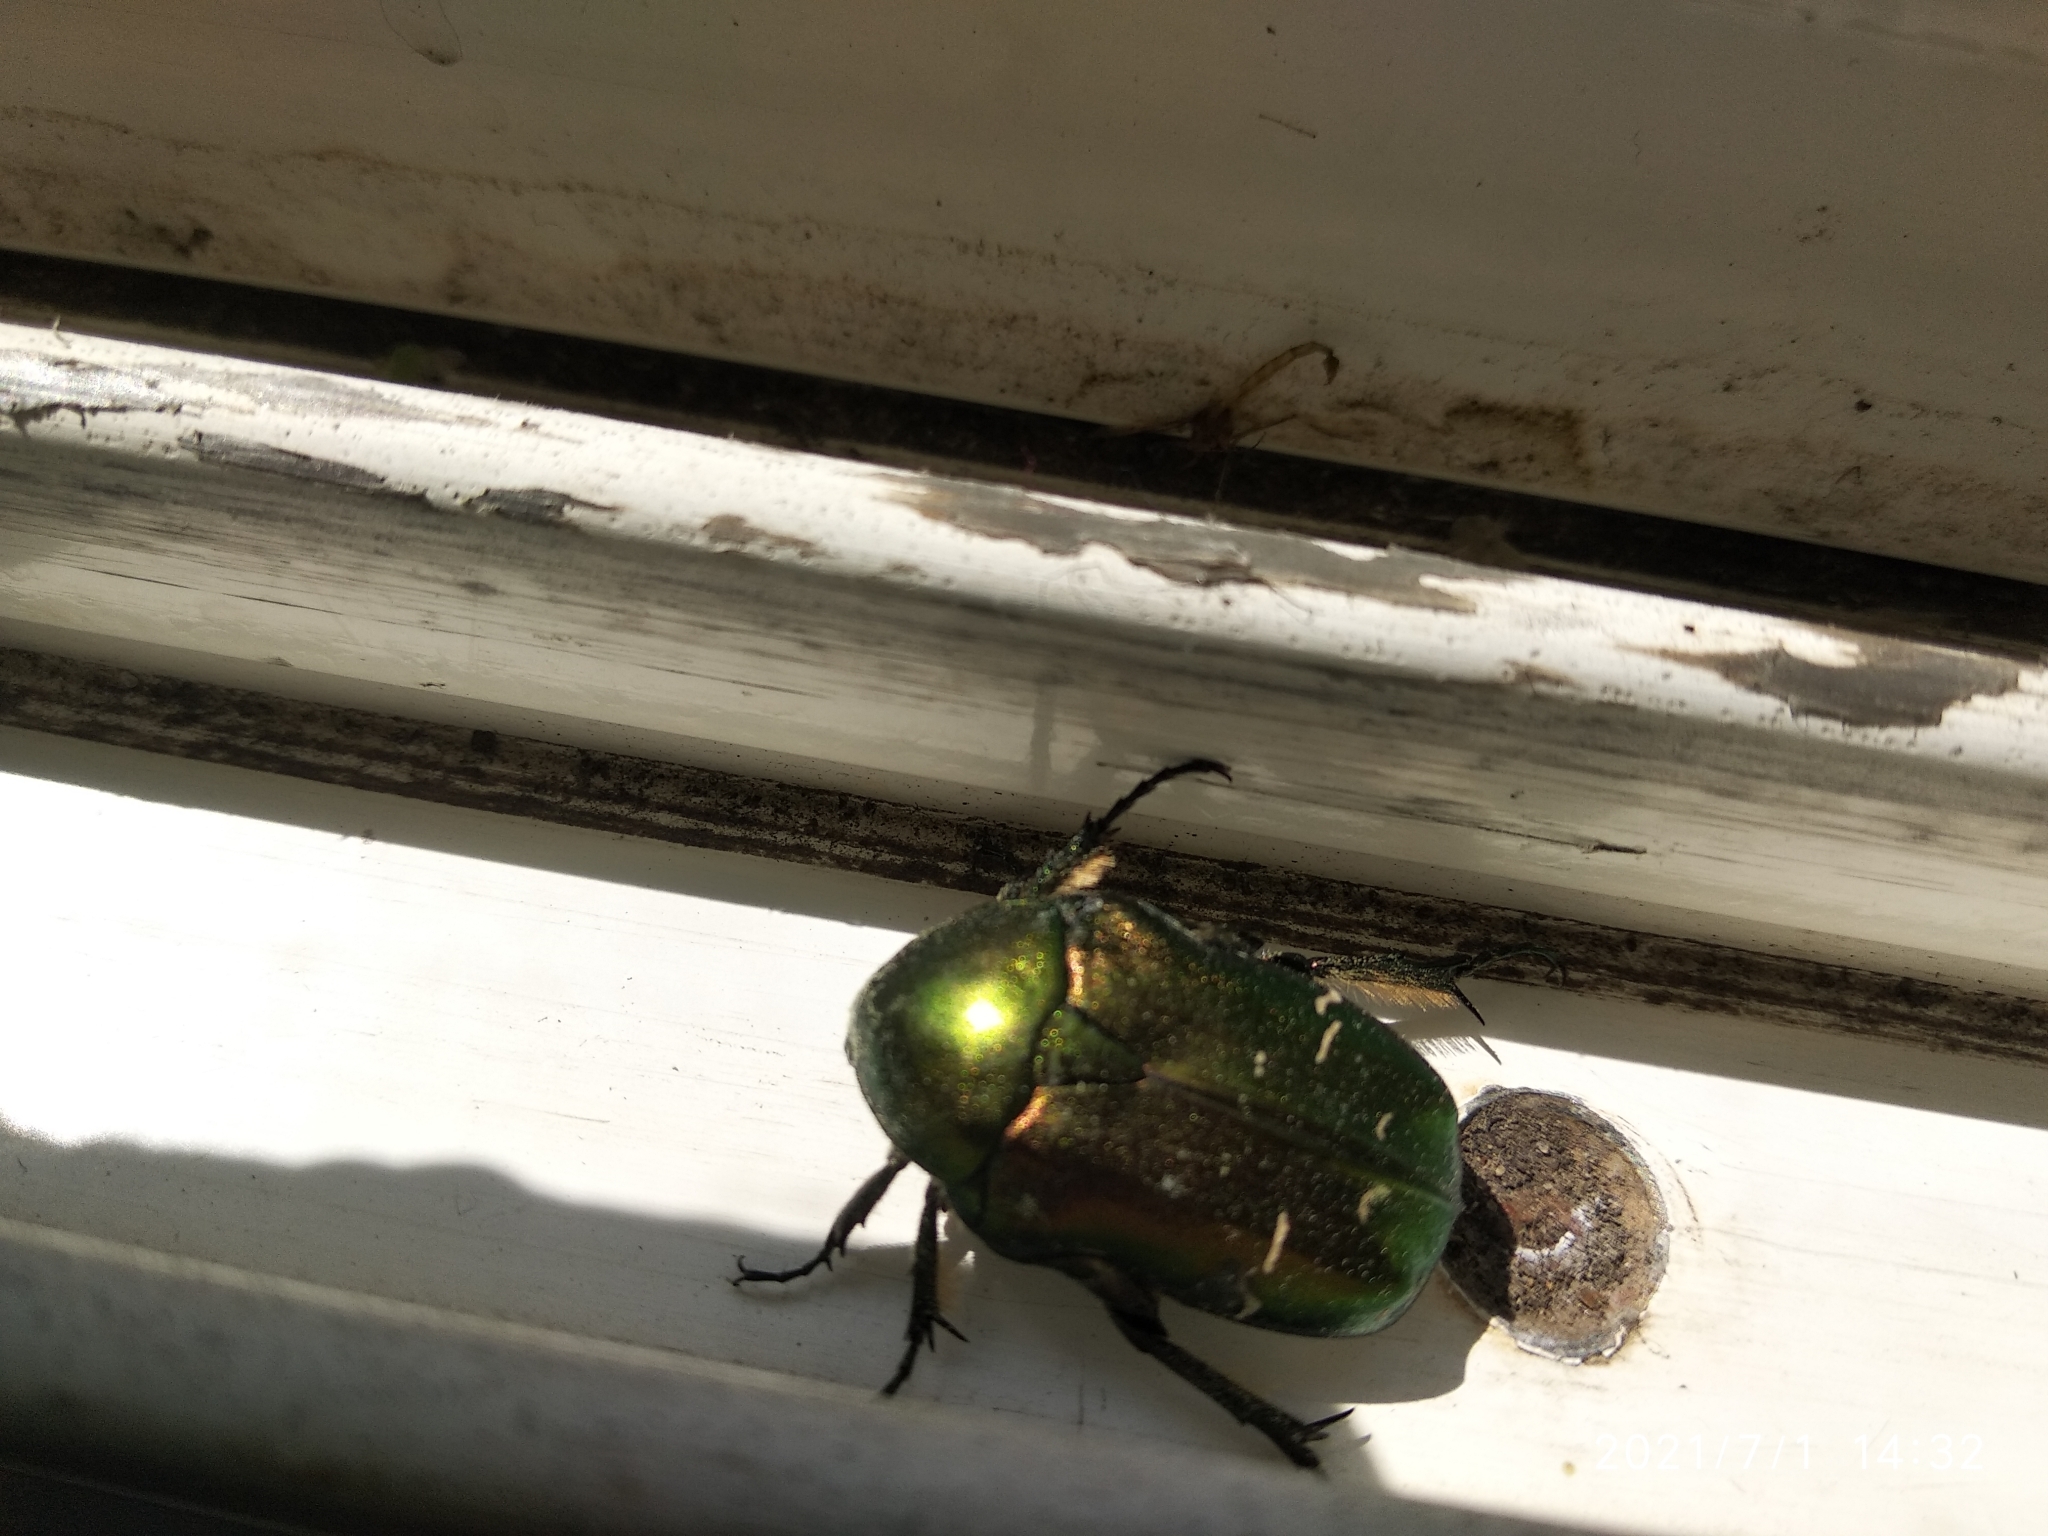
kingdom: Animalia
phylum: Arthropoda
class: Insecta
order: Coleoptera
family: Scarabaeidae
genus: Cetonia
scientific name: Cetonia aurata
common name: Rose chafer
